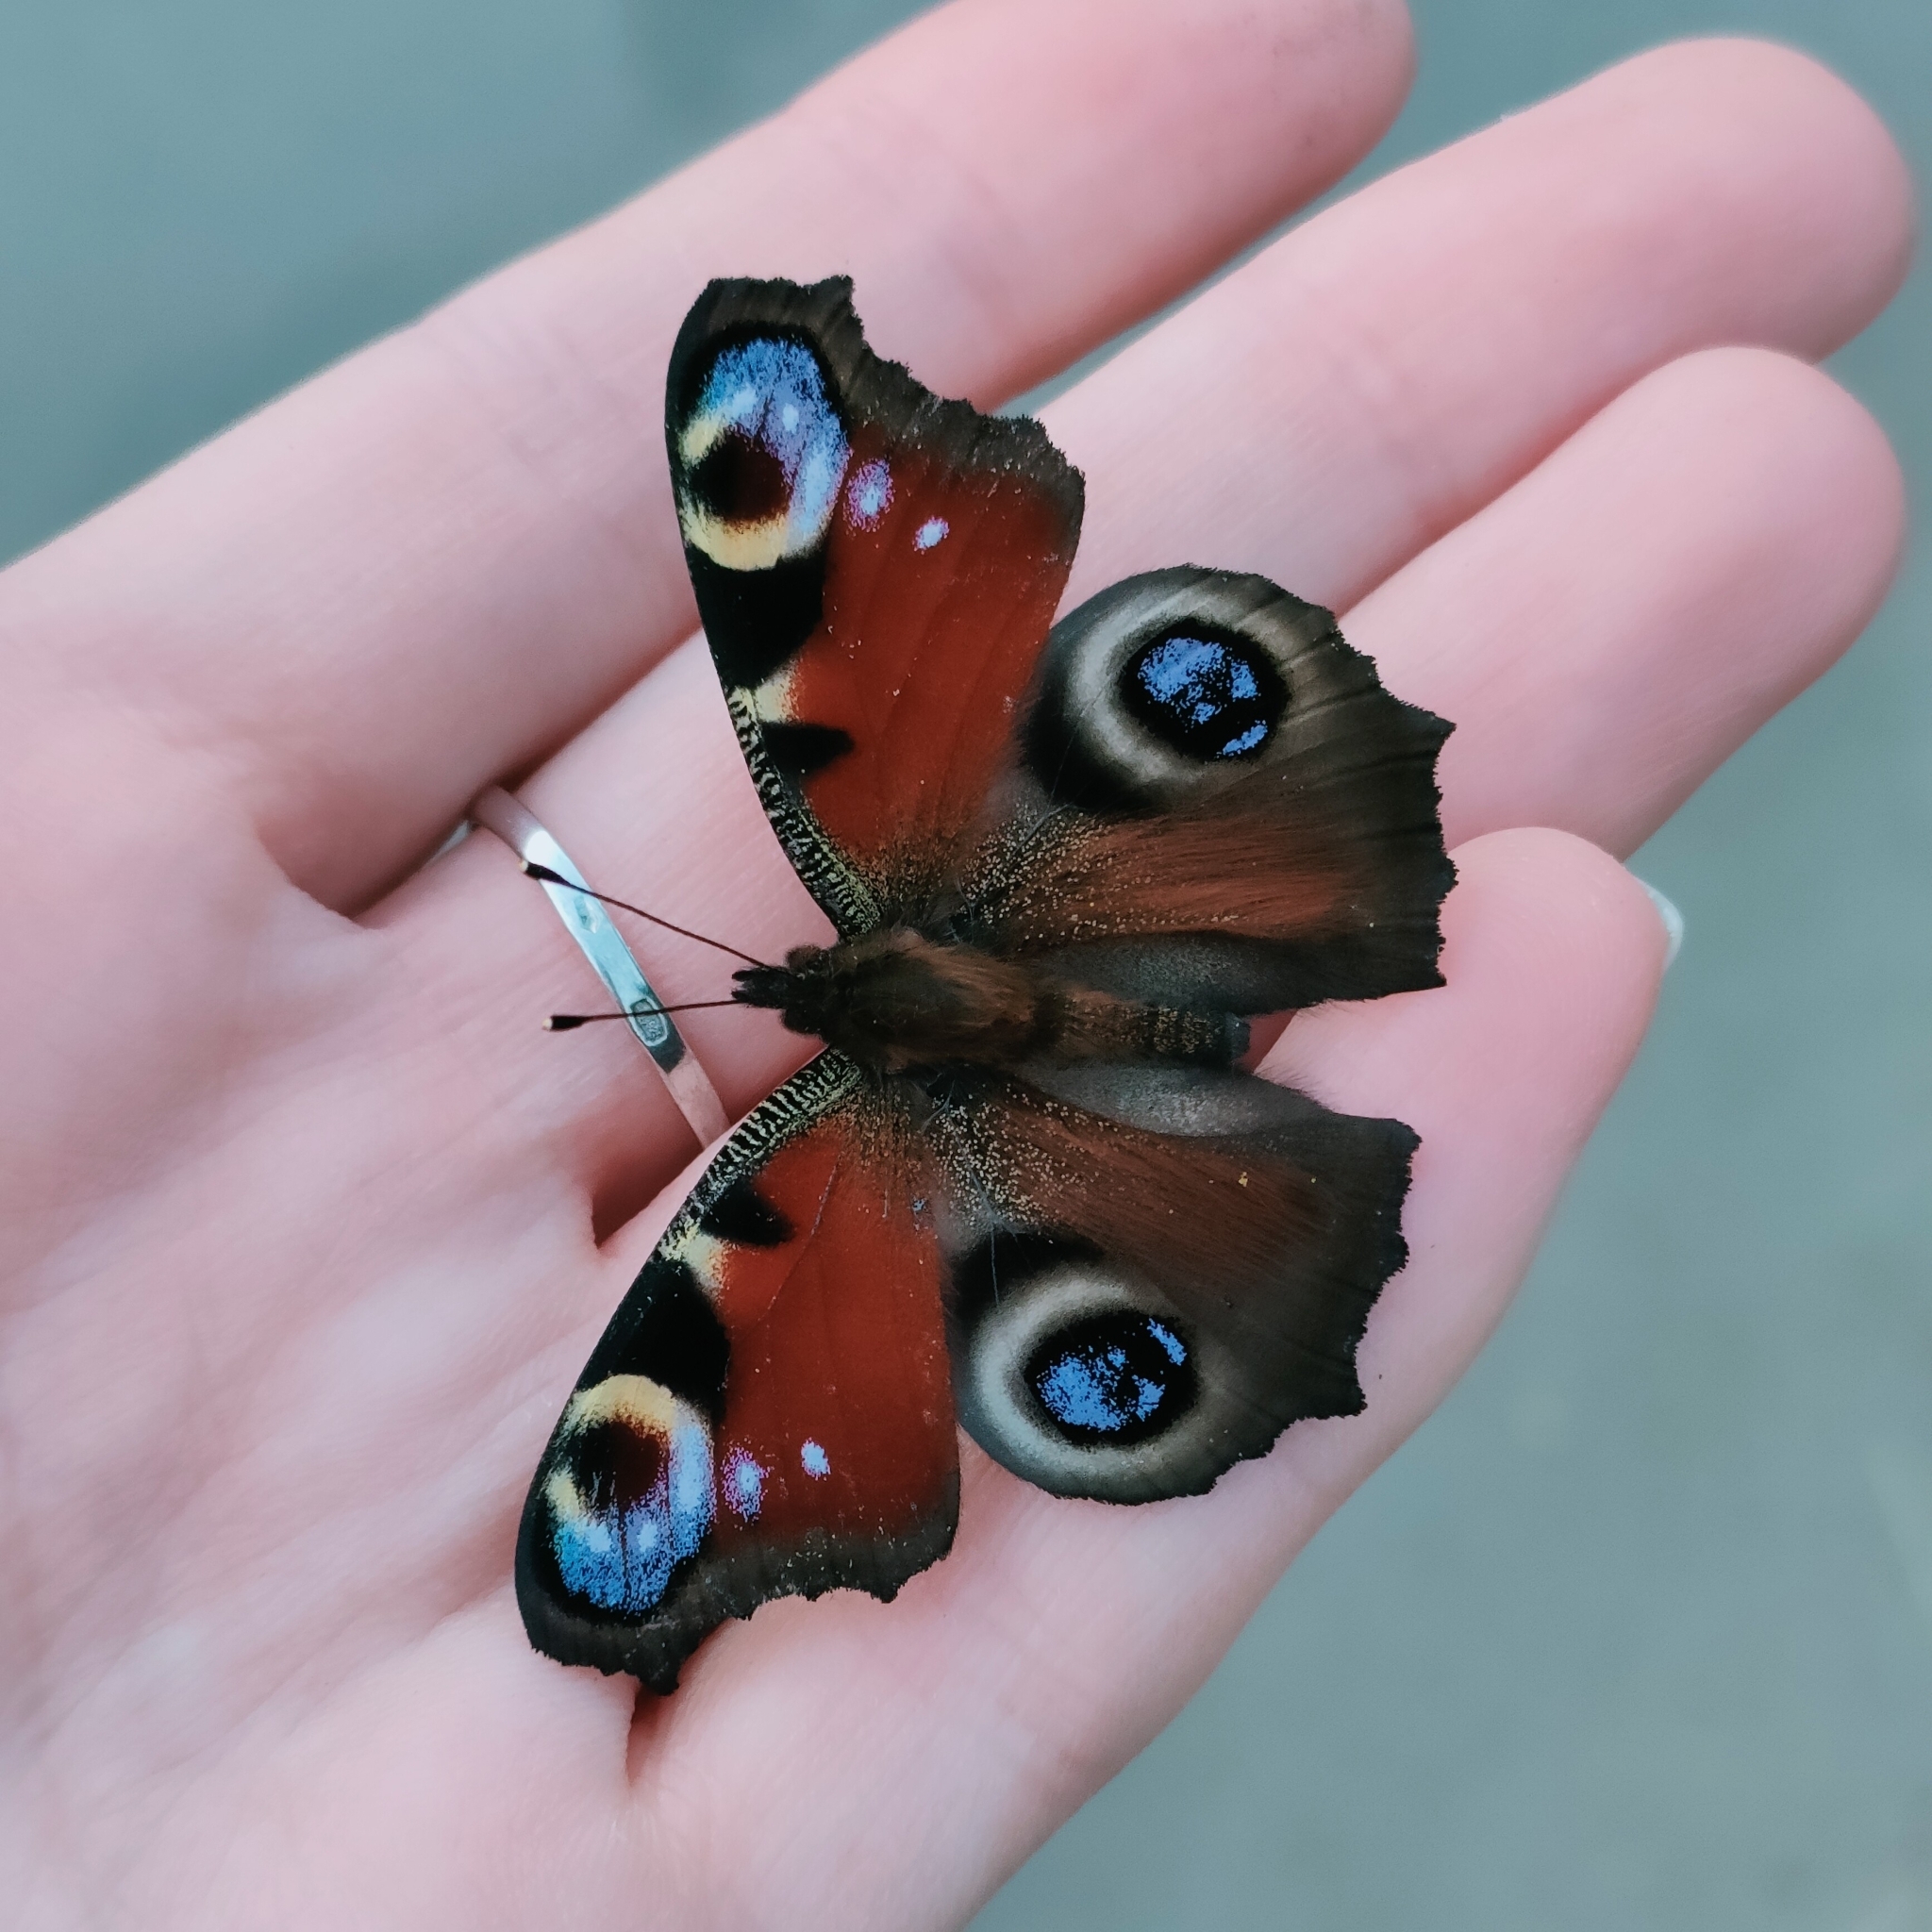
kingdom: Animalia
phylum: Arthropoda
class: Insecta
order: Lepidoptera
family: Nymphalidae
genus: Aglais
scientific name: Aglais io
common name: Peacock
